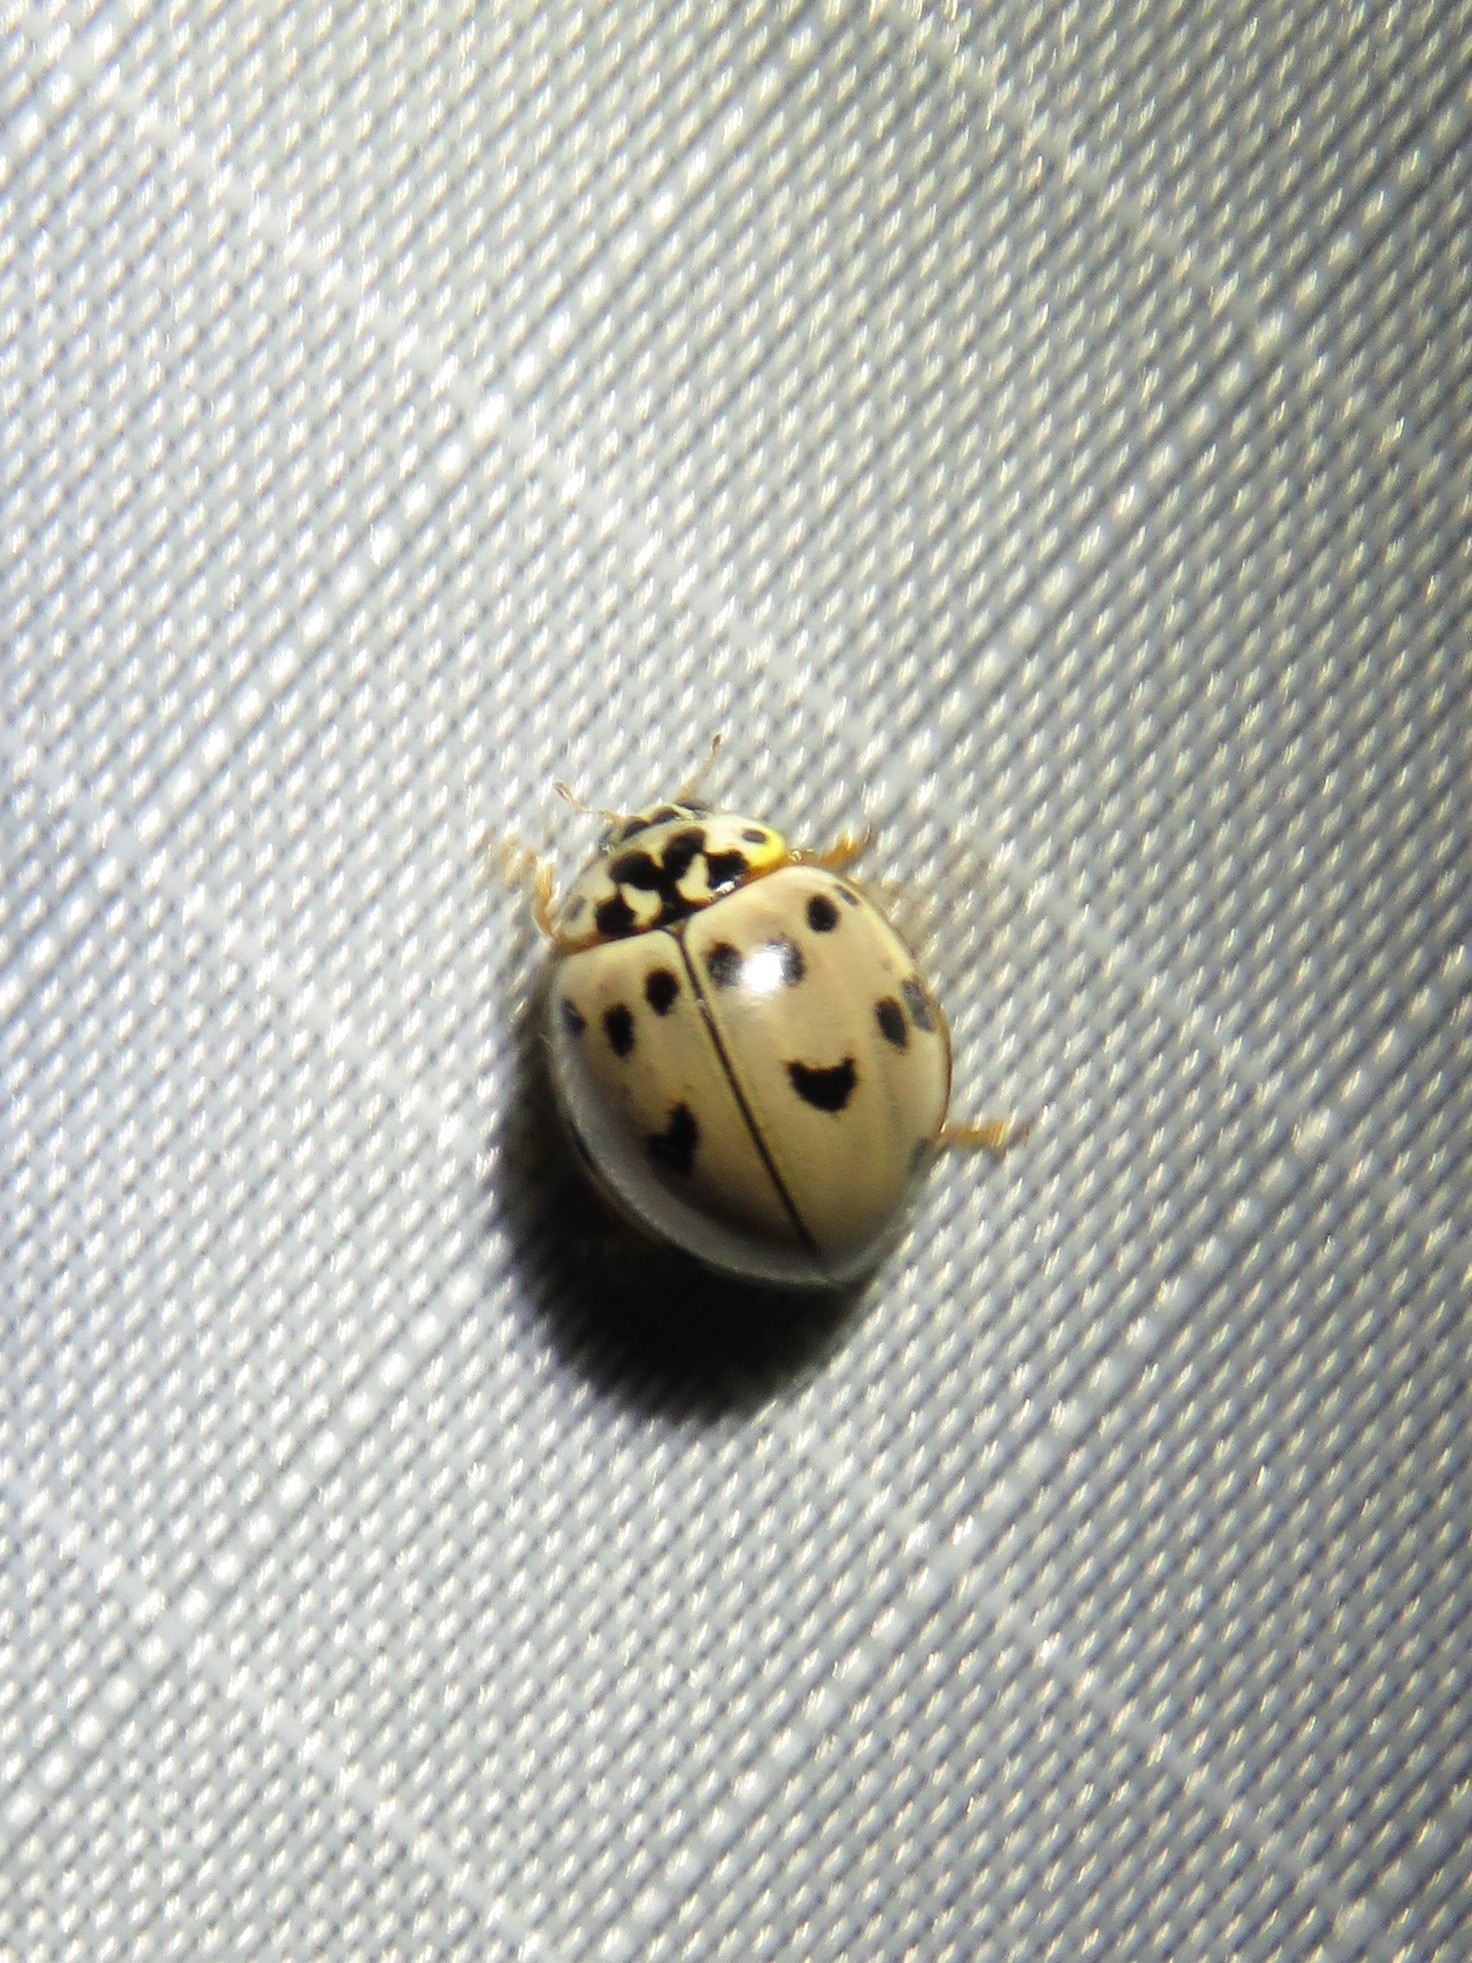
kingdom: Animalia
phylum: Arthropoda
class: Insecta
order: Coleoptera
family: Coccinellidae
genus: Olla
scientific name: Olla v-nigrum
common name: Ashy gray lady beetle
